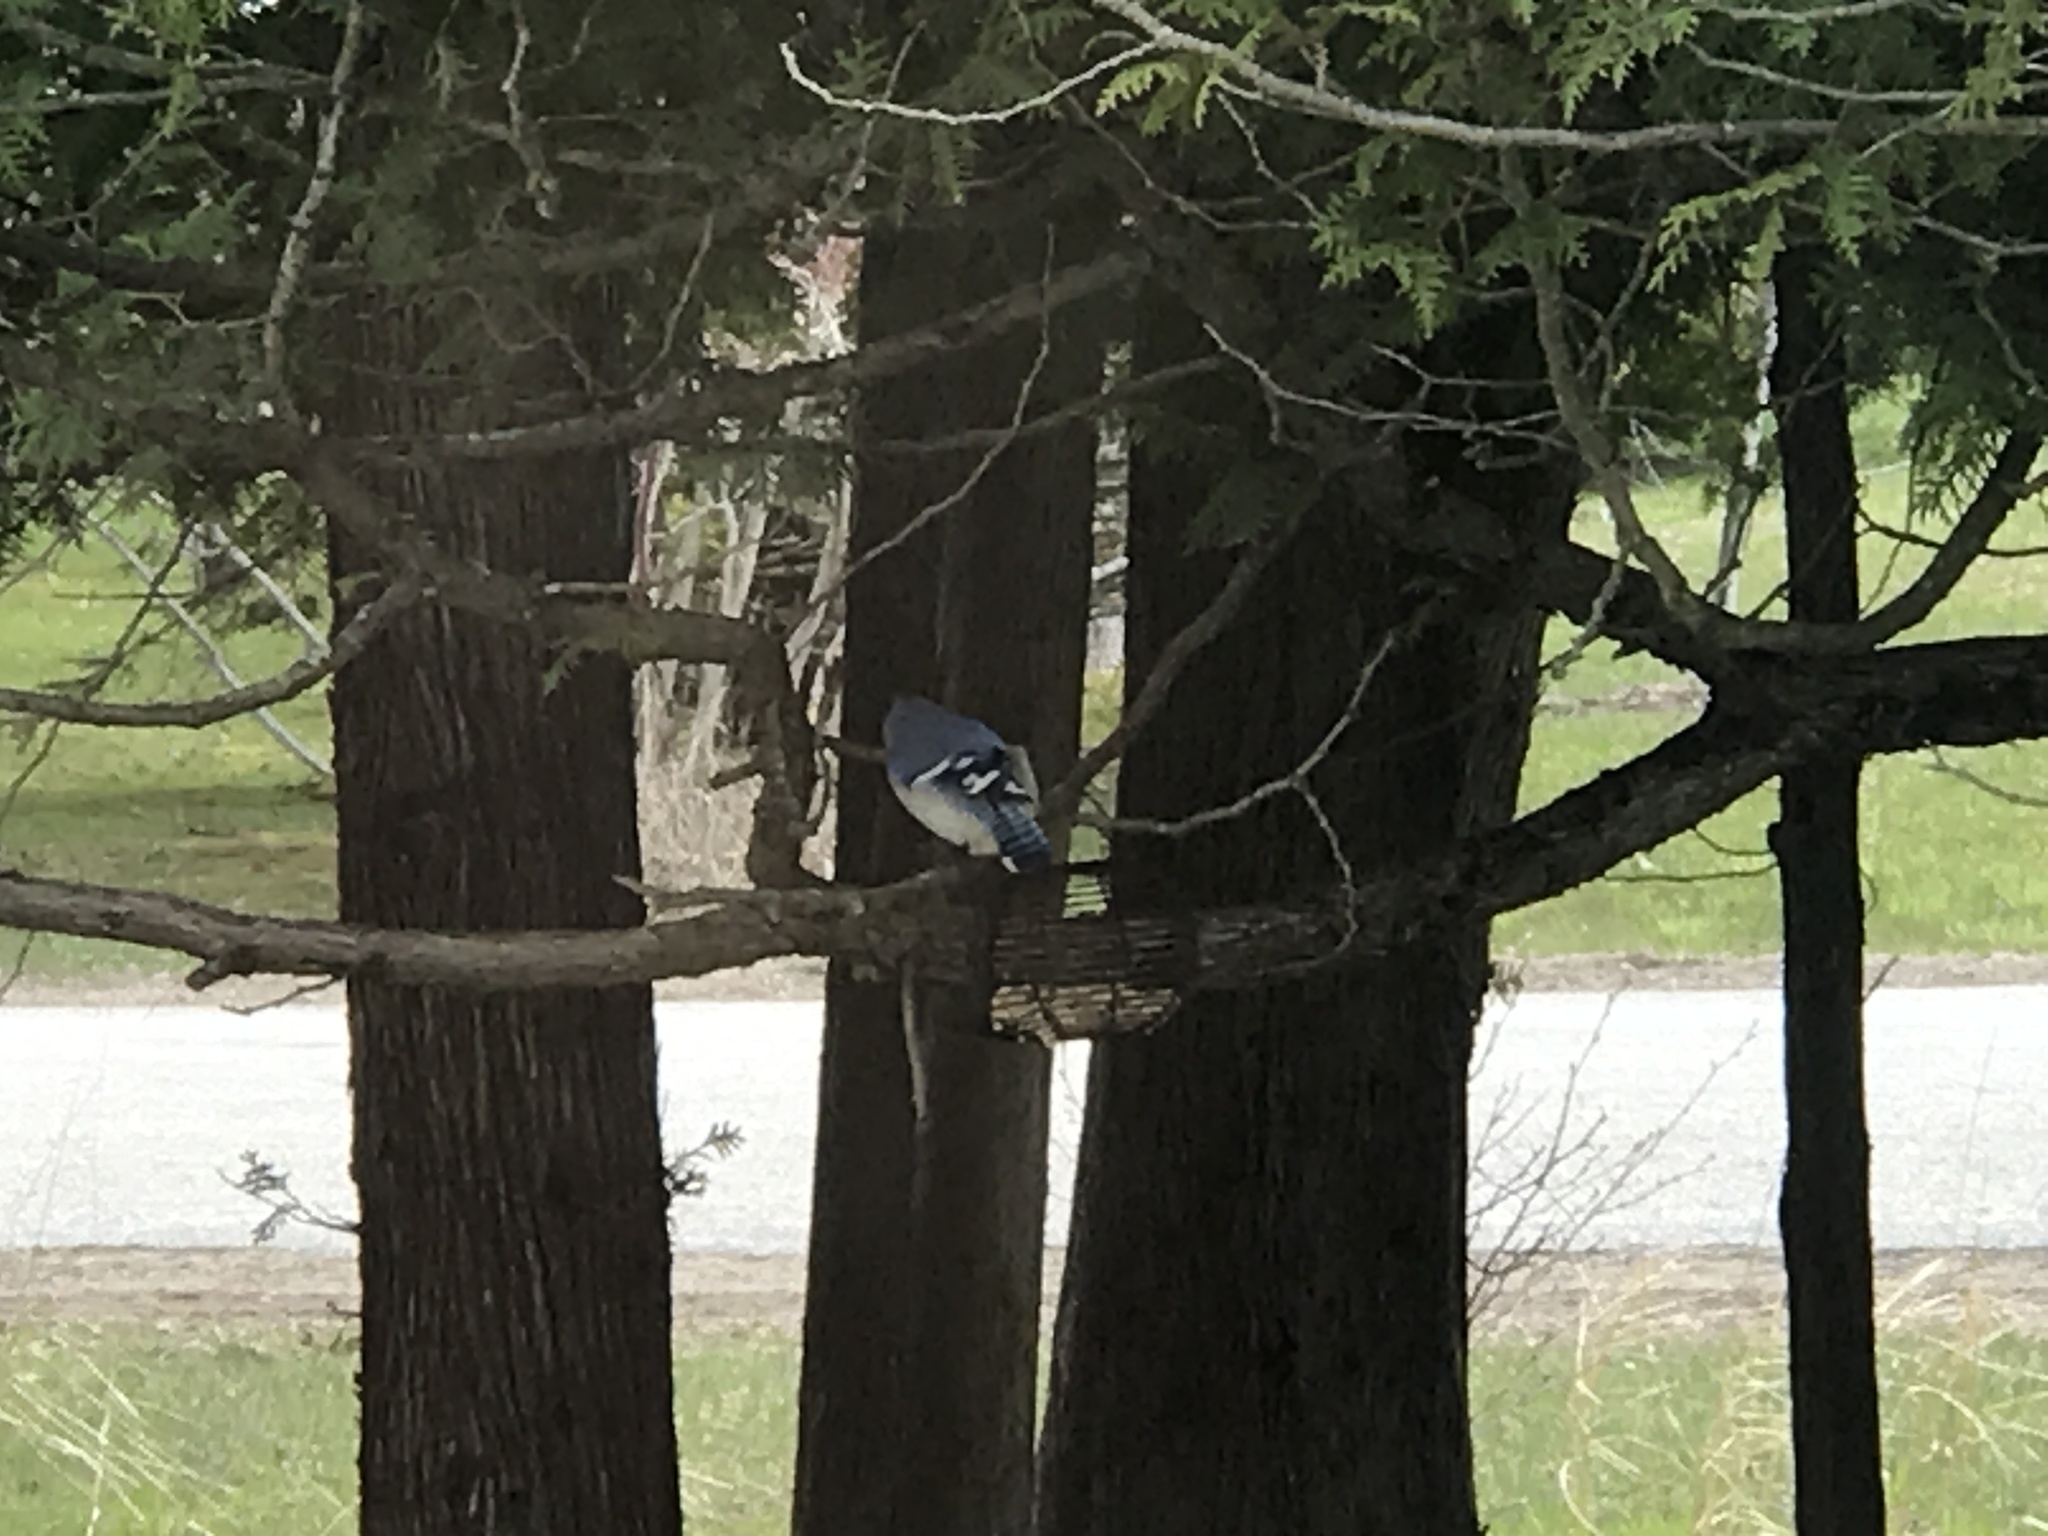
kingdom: Animalia
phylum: Chordata
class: Aves
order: Passeriformes
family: Corvidae
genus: Cyanocitta
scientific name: Cyanocitta cristata
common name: Blue jay
